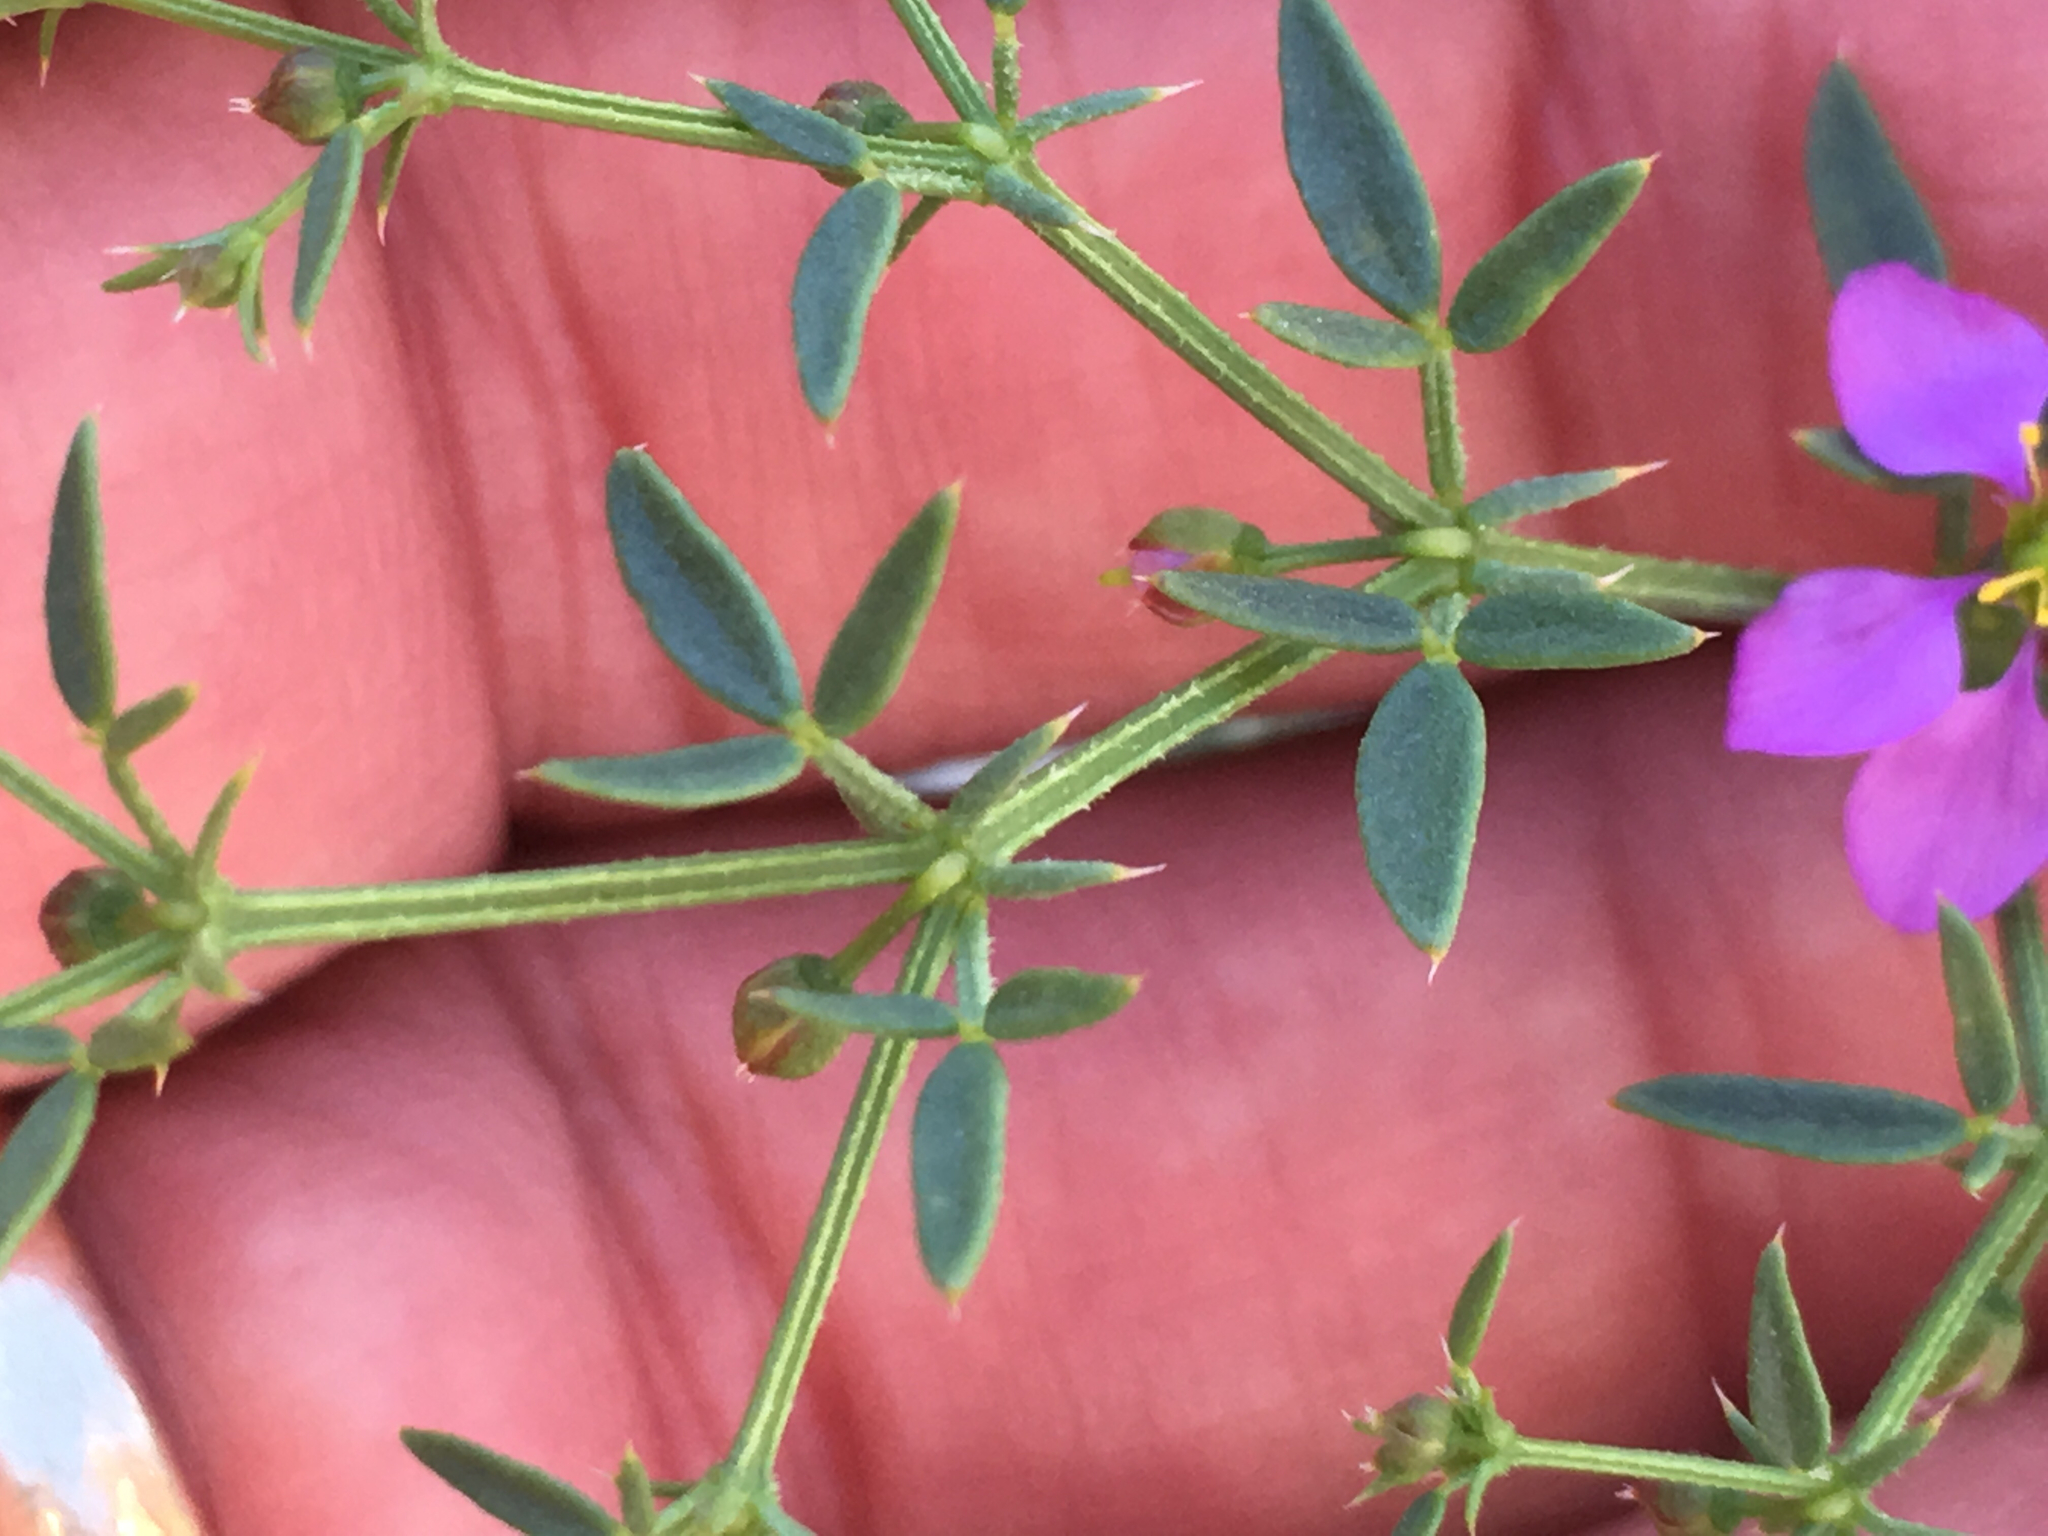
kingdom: Plantae
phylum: Tracheophyta
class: Magnoliopsida
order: Zygophyllales
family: Zygophyllaceae
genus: Fagonia
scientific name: Fagonia laevis
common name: California fagonbush
